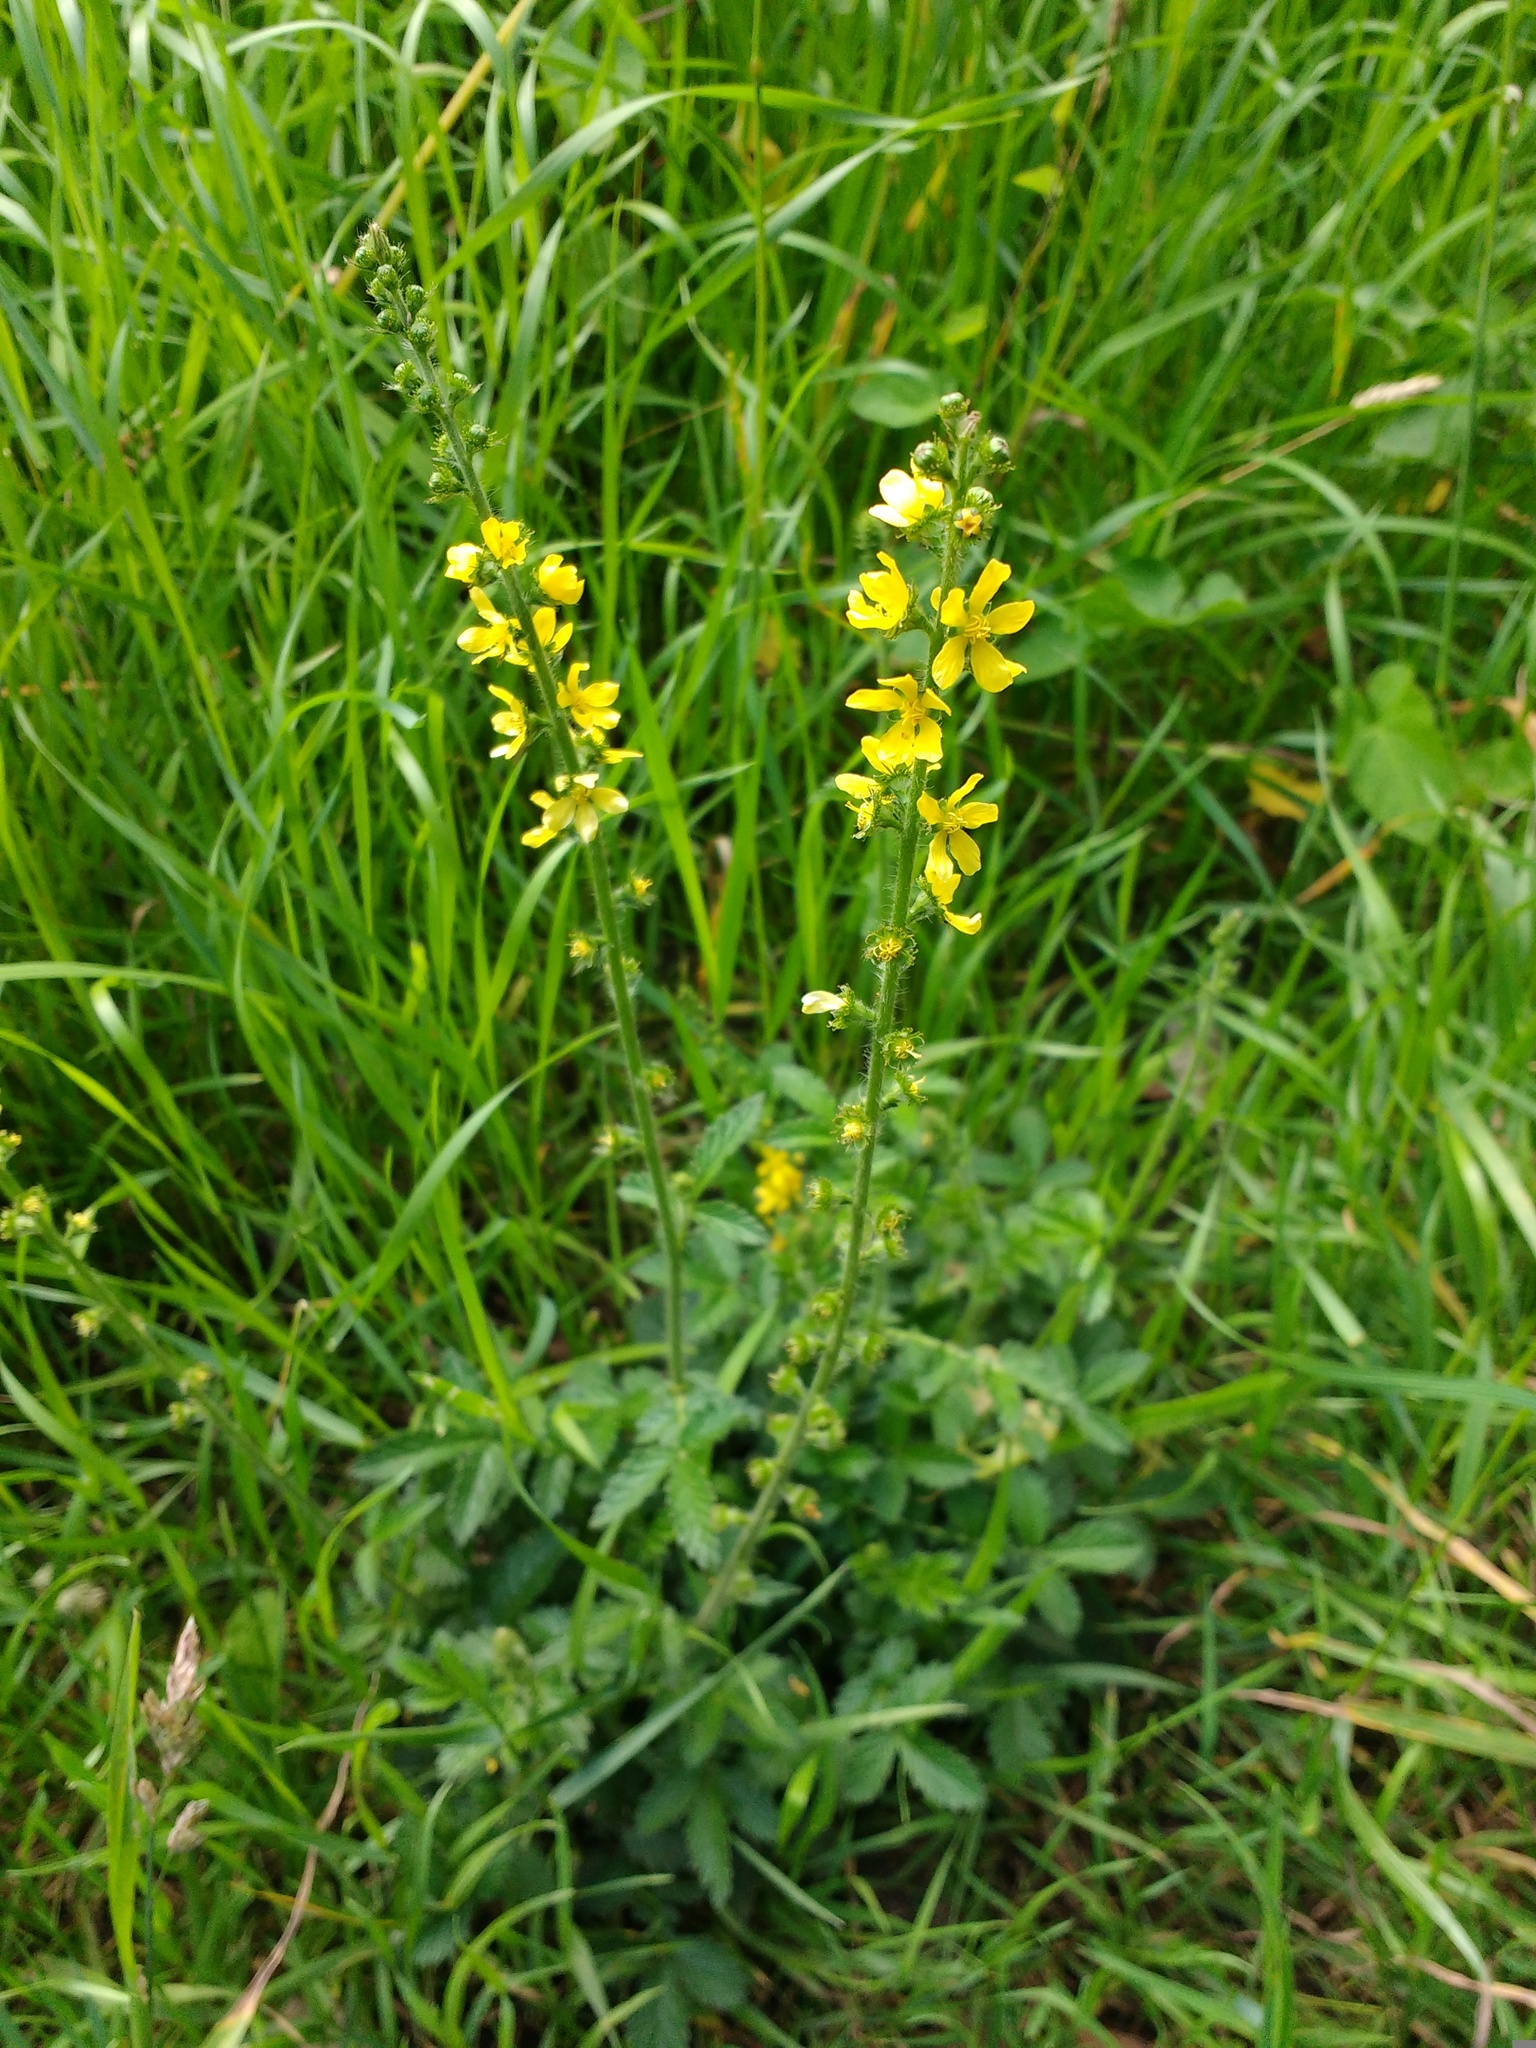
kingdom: Plantae
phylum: Tracheophyta
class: Magnoliopsida
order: Rosales
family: Rosaceae
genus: Agrimonia
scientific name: Agrimonia eupatoria
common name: Agrimony
